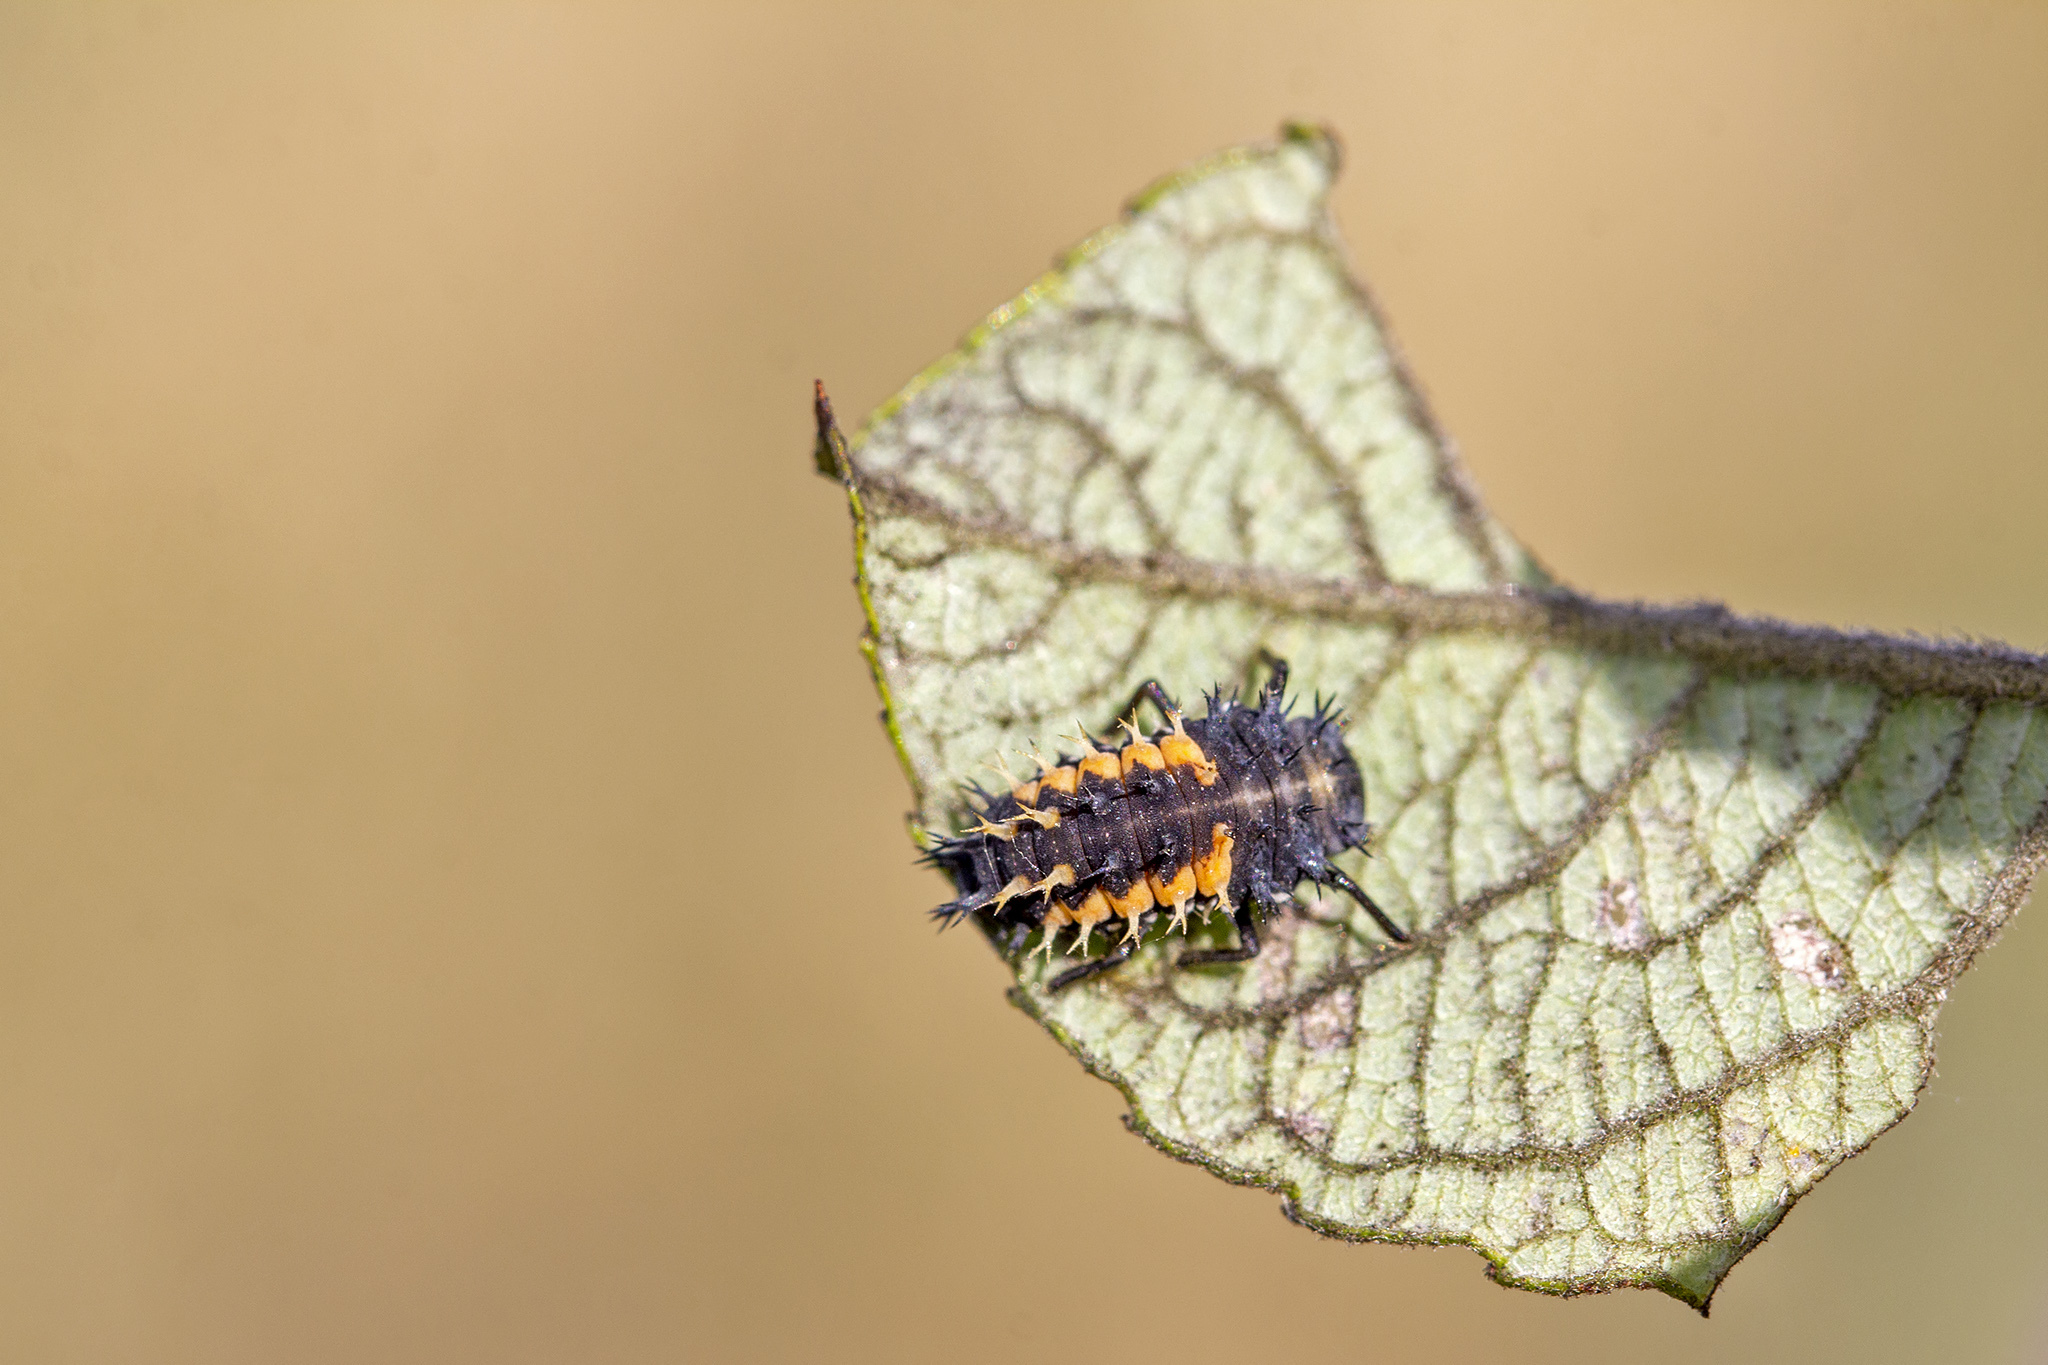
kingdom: Animalia
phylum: Arthropoda
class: Insecta
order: Coleoptera
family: Coccinellidae
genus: Harmonia
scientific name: Harmonia axyridis
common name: Harlequin ladybird
